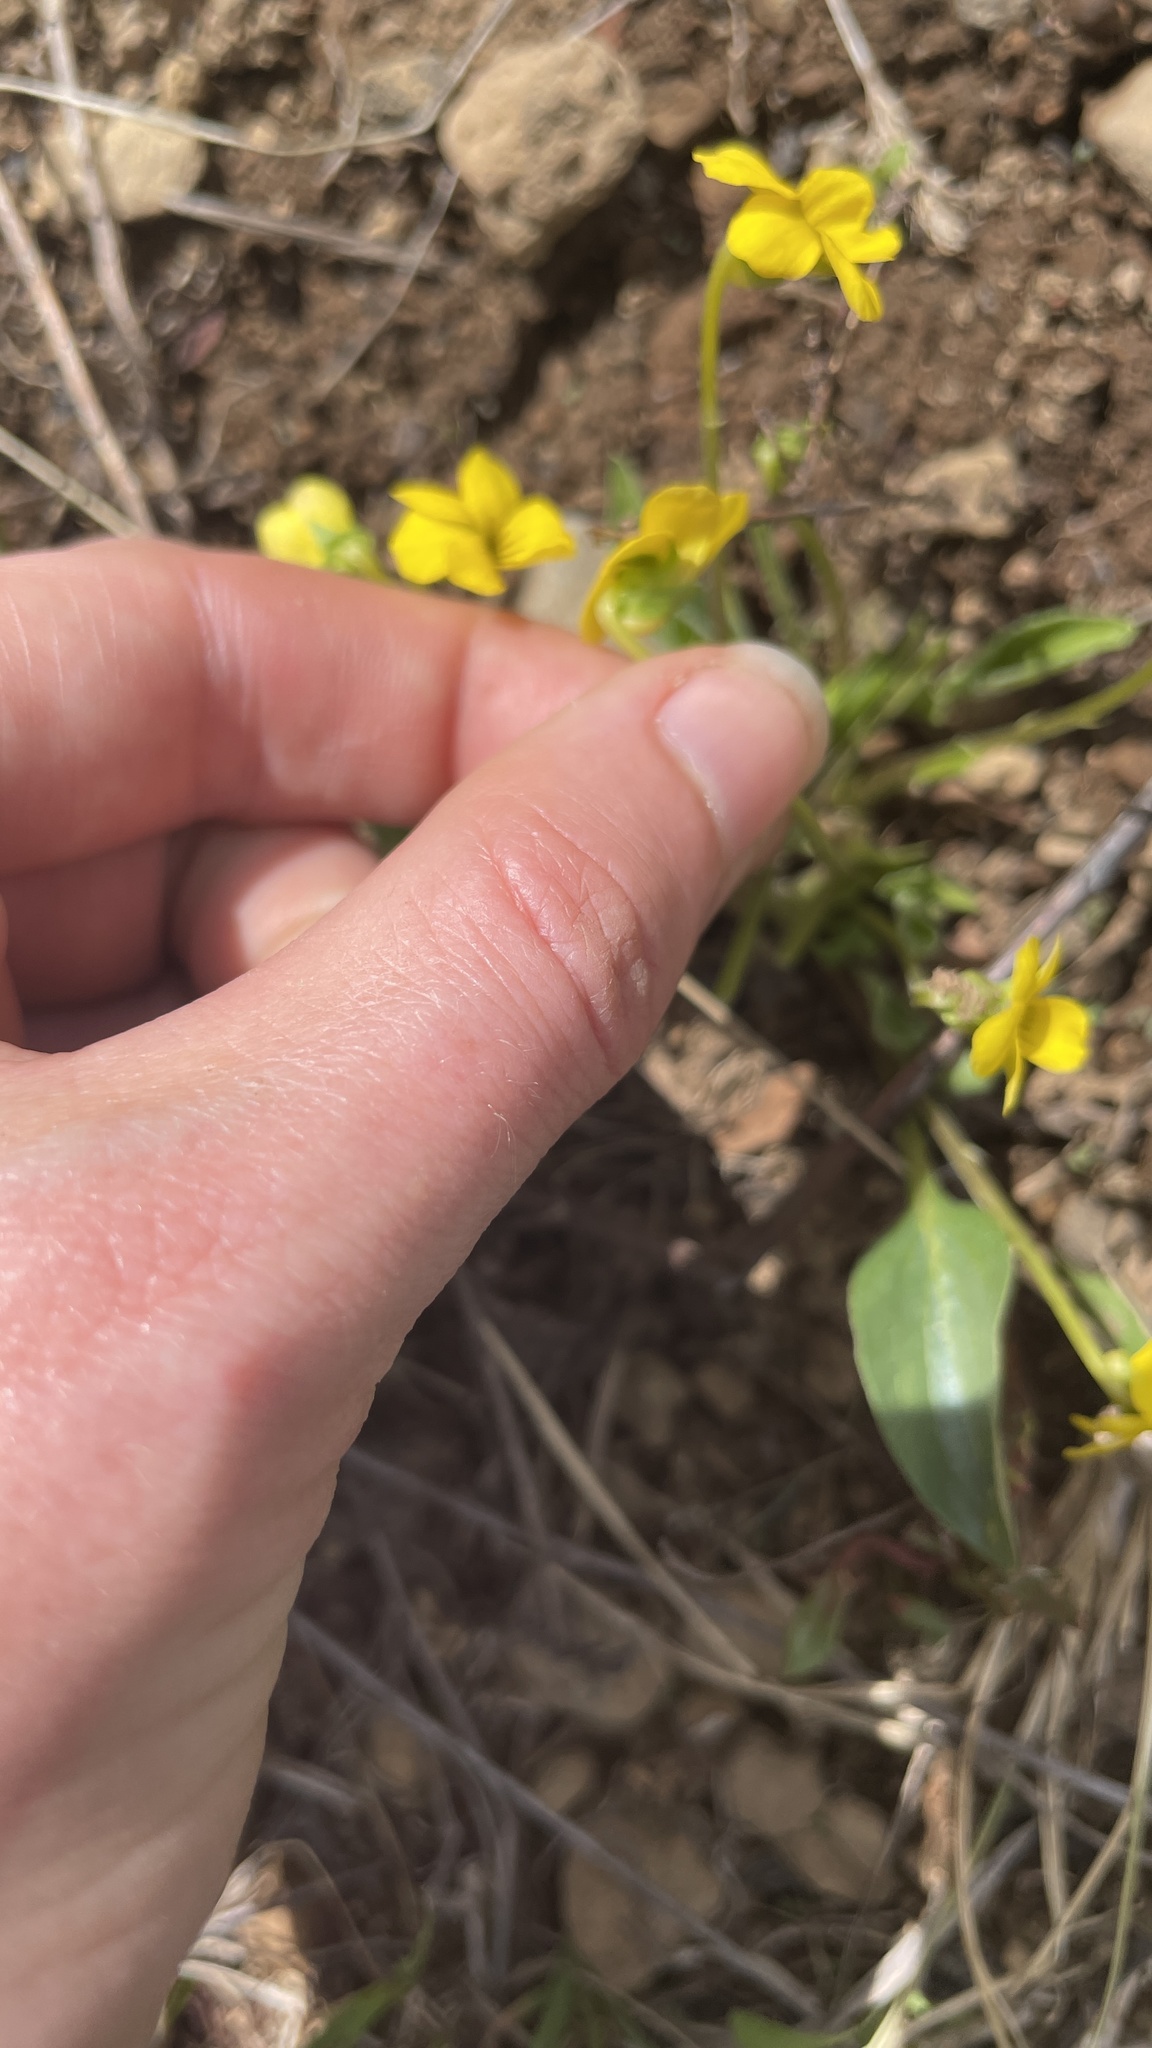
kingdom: Plantae
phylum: Tracheophyta
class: Magnoliopsida
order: Malpighiales
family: Violaceae
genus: Viola
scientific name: Viola bakeri
